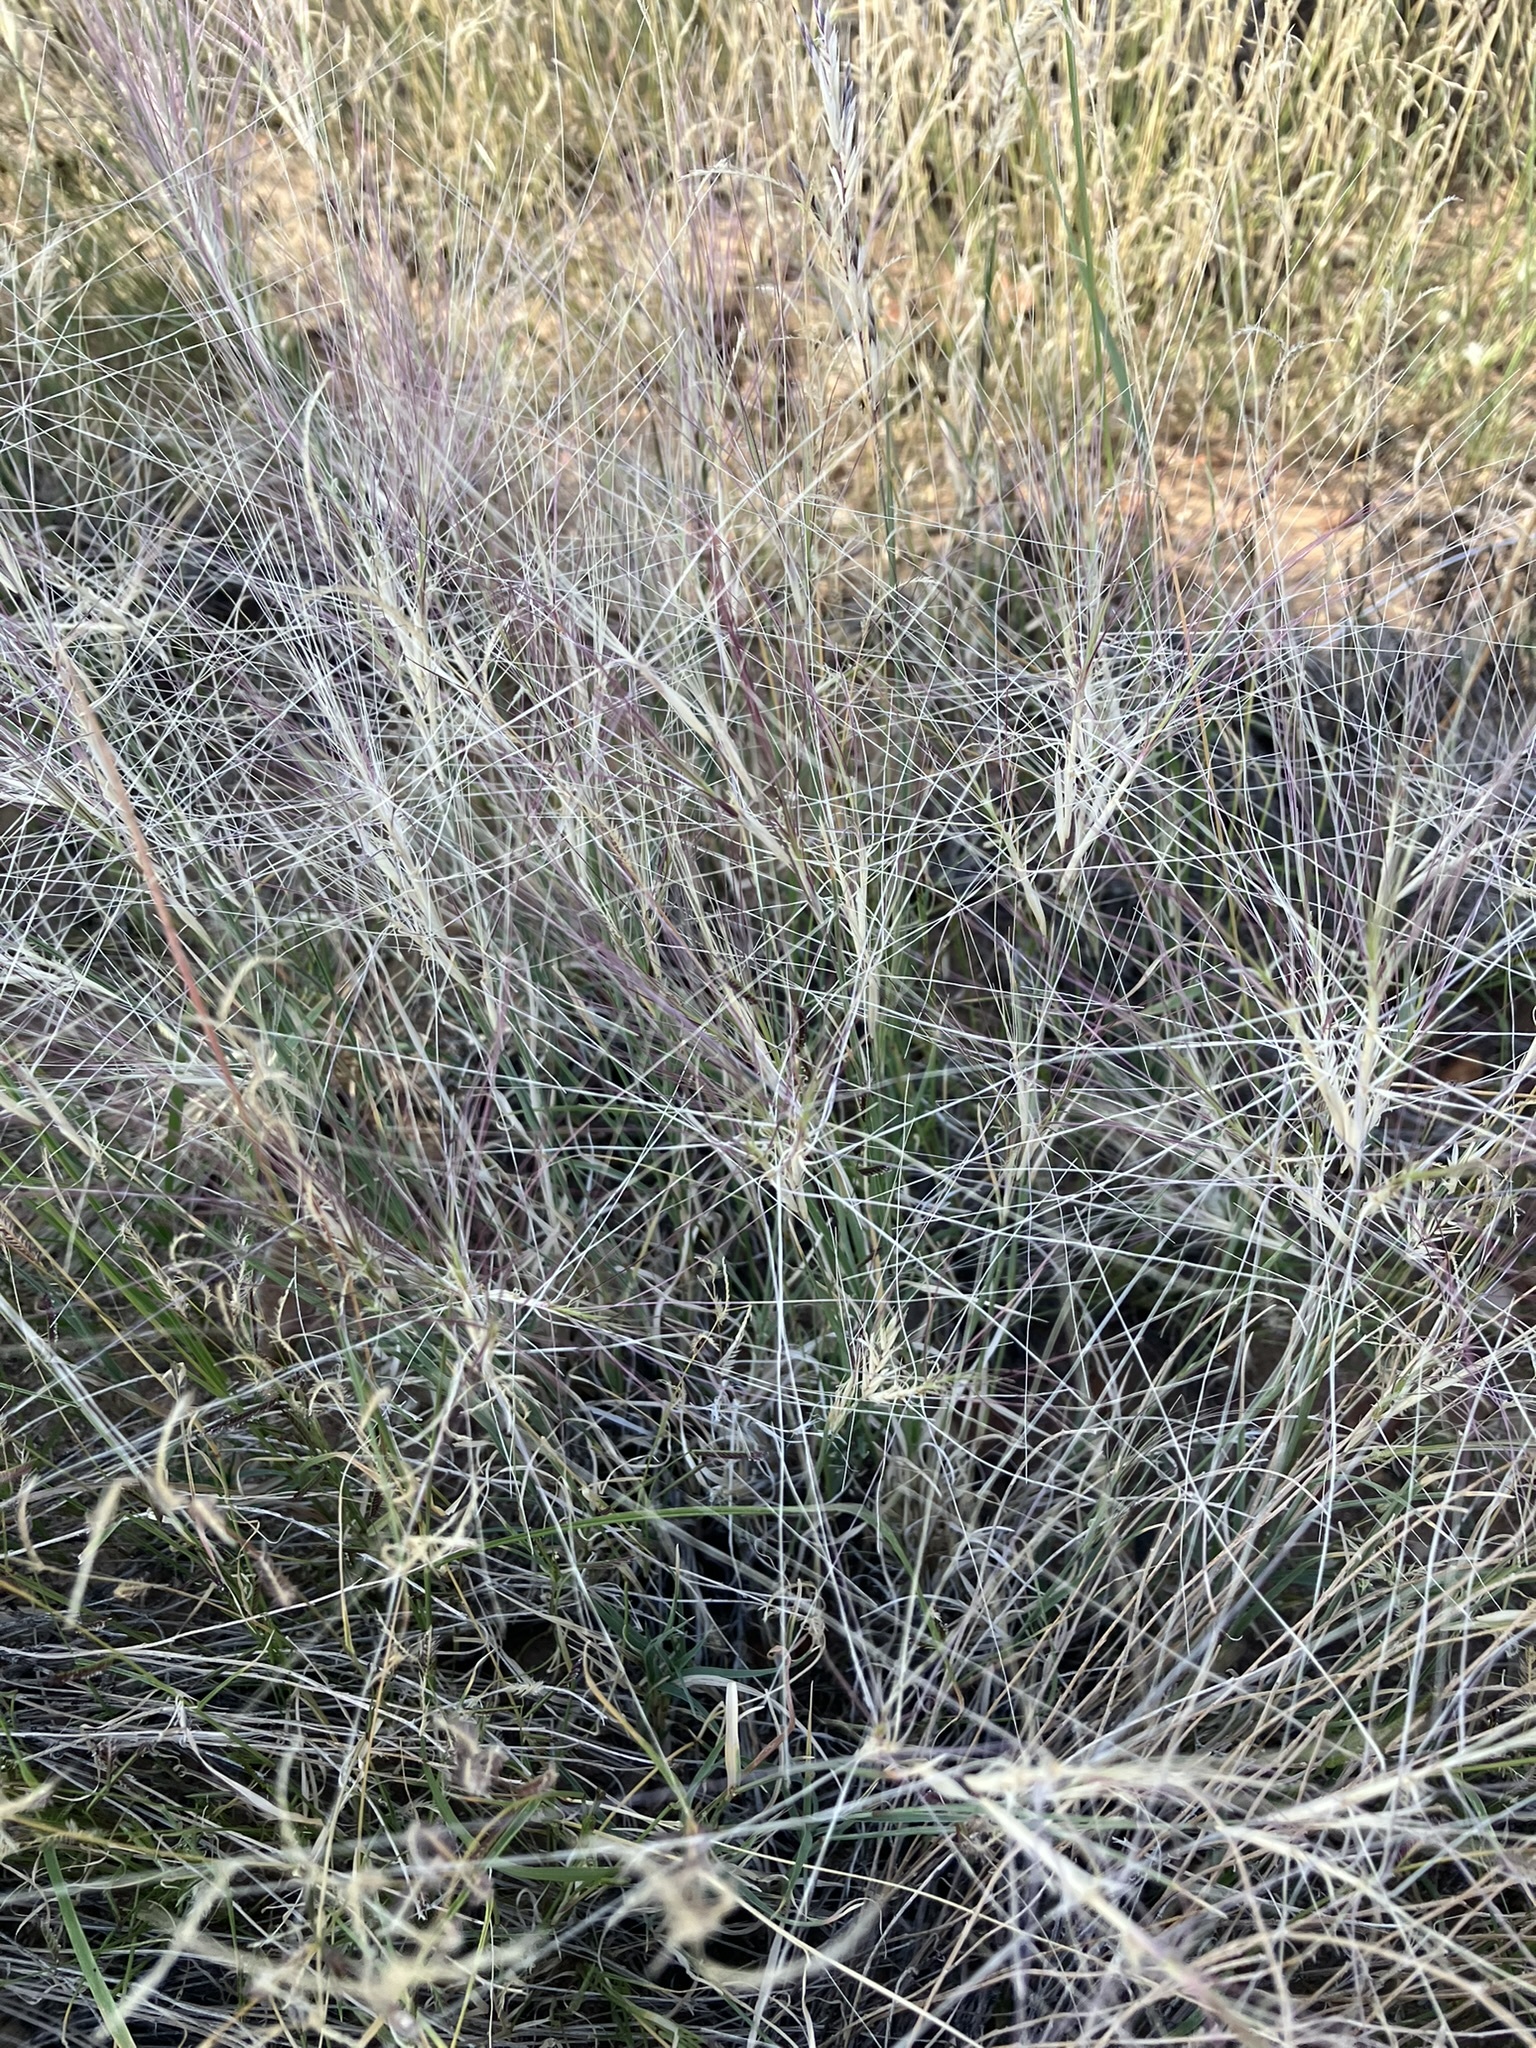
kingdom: Plantae
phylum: Tracheophyta
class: Liliopsida
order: Poales
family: Poaceae
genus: Scleropogon
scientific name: Scleropogon brevifolius
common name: Burro grass
